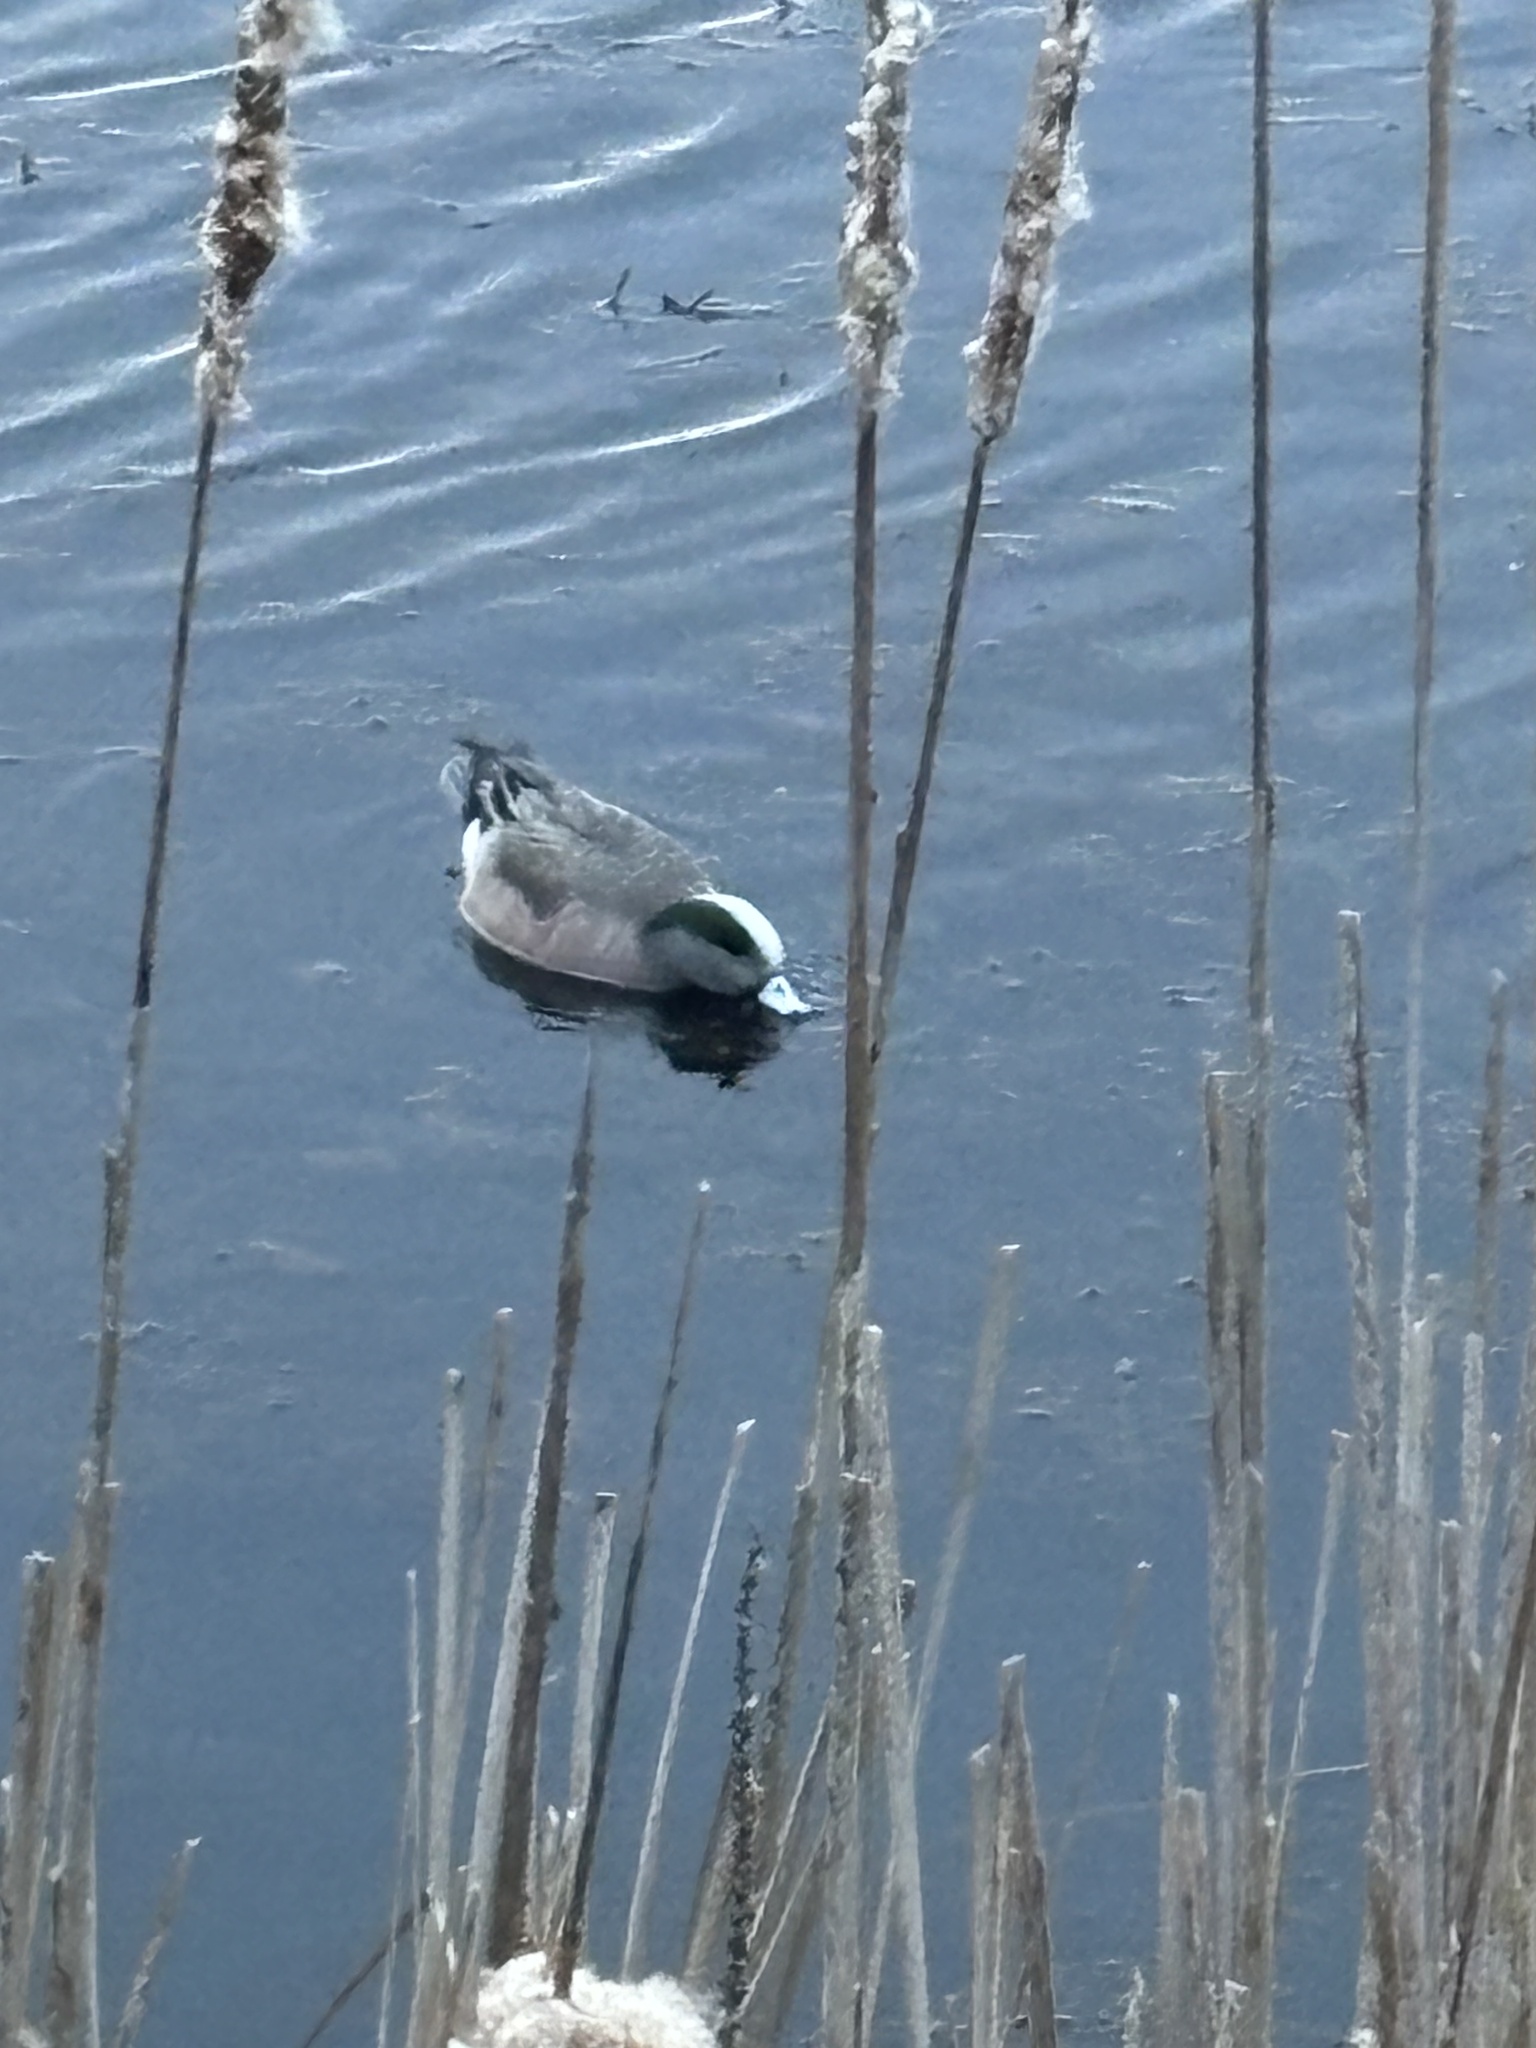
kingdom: Animalia
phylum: Chordata
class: Aves
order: Anseriformes
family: Anatidae
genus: Mareca
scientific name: Mareca americana
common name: American wigeon
